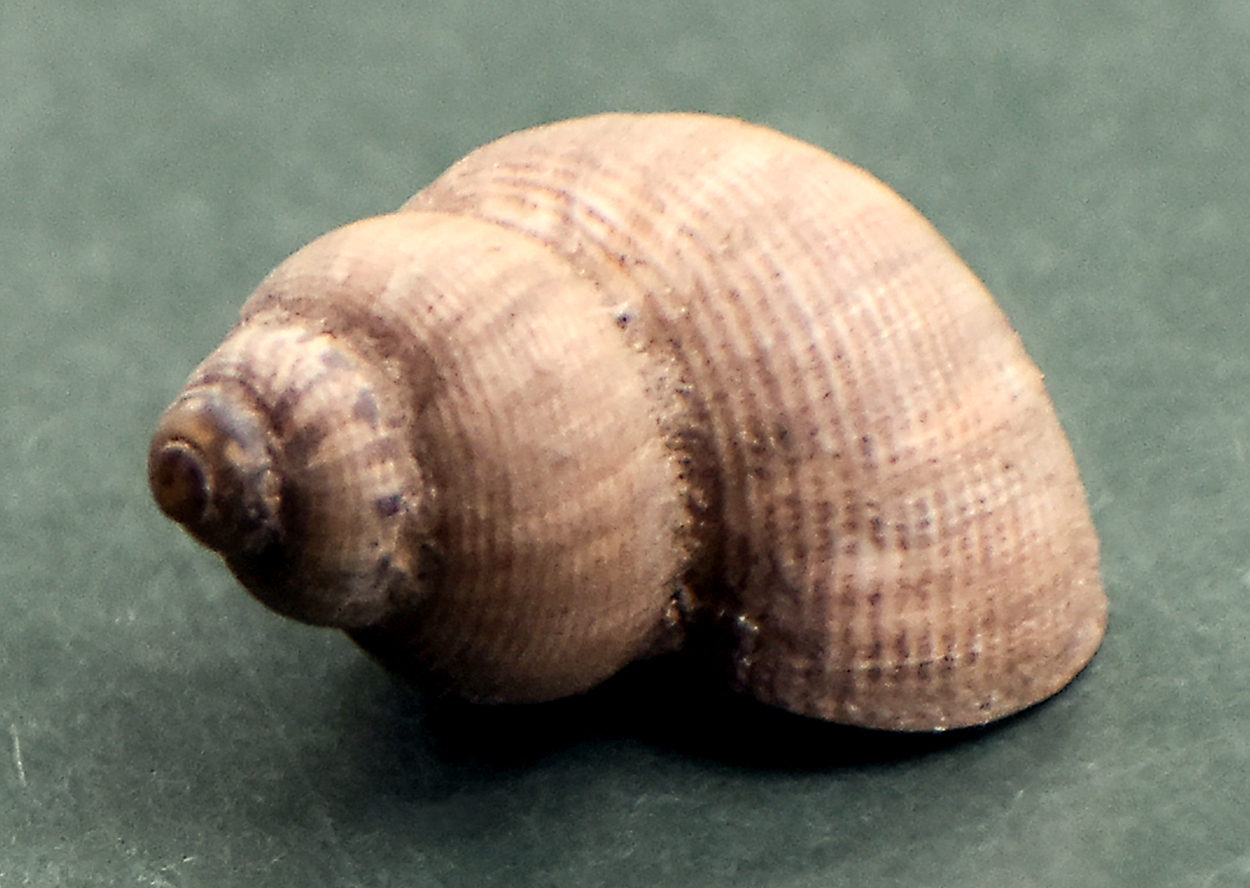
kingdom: Animalia
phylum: Mollusca
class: Gastropoda
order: Littorinimorpha
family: Pomatiidae
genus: Pomatias
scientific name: Pomatias elegans
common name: Red-mouthed snail
